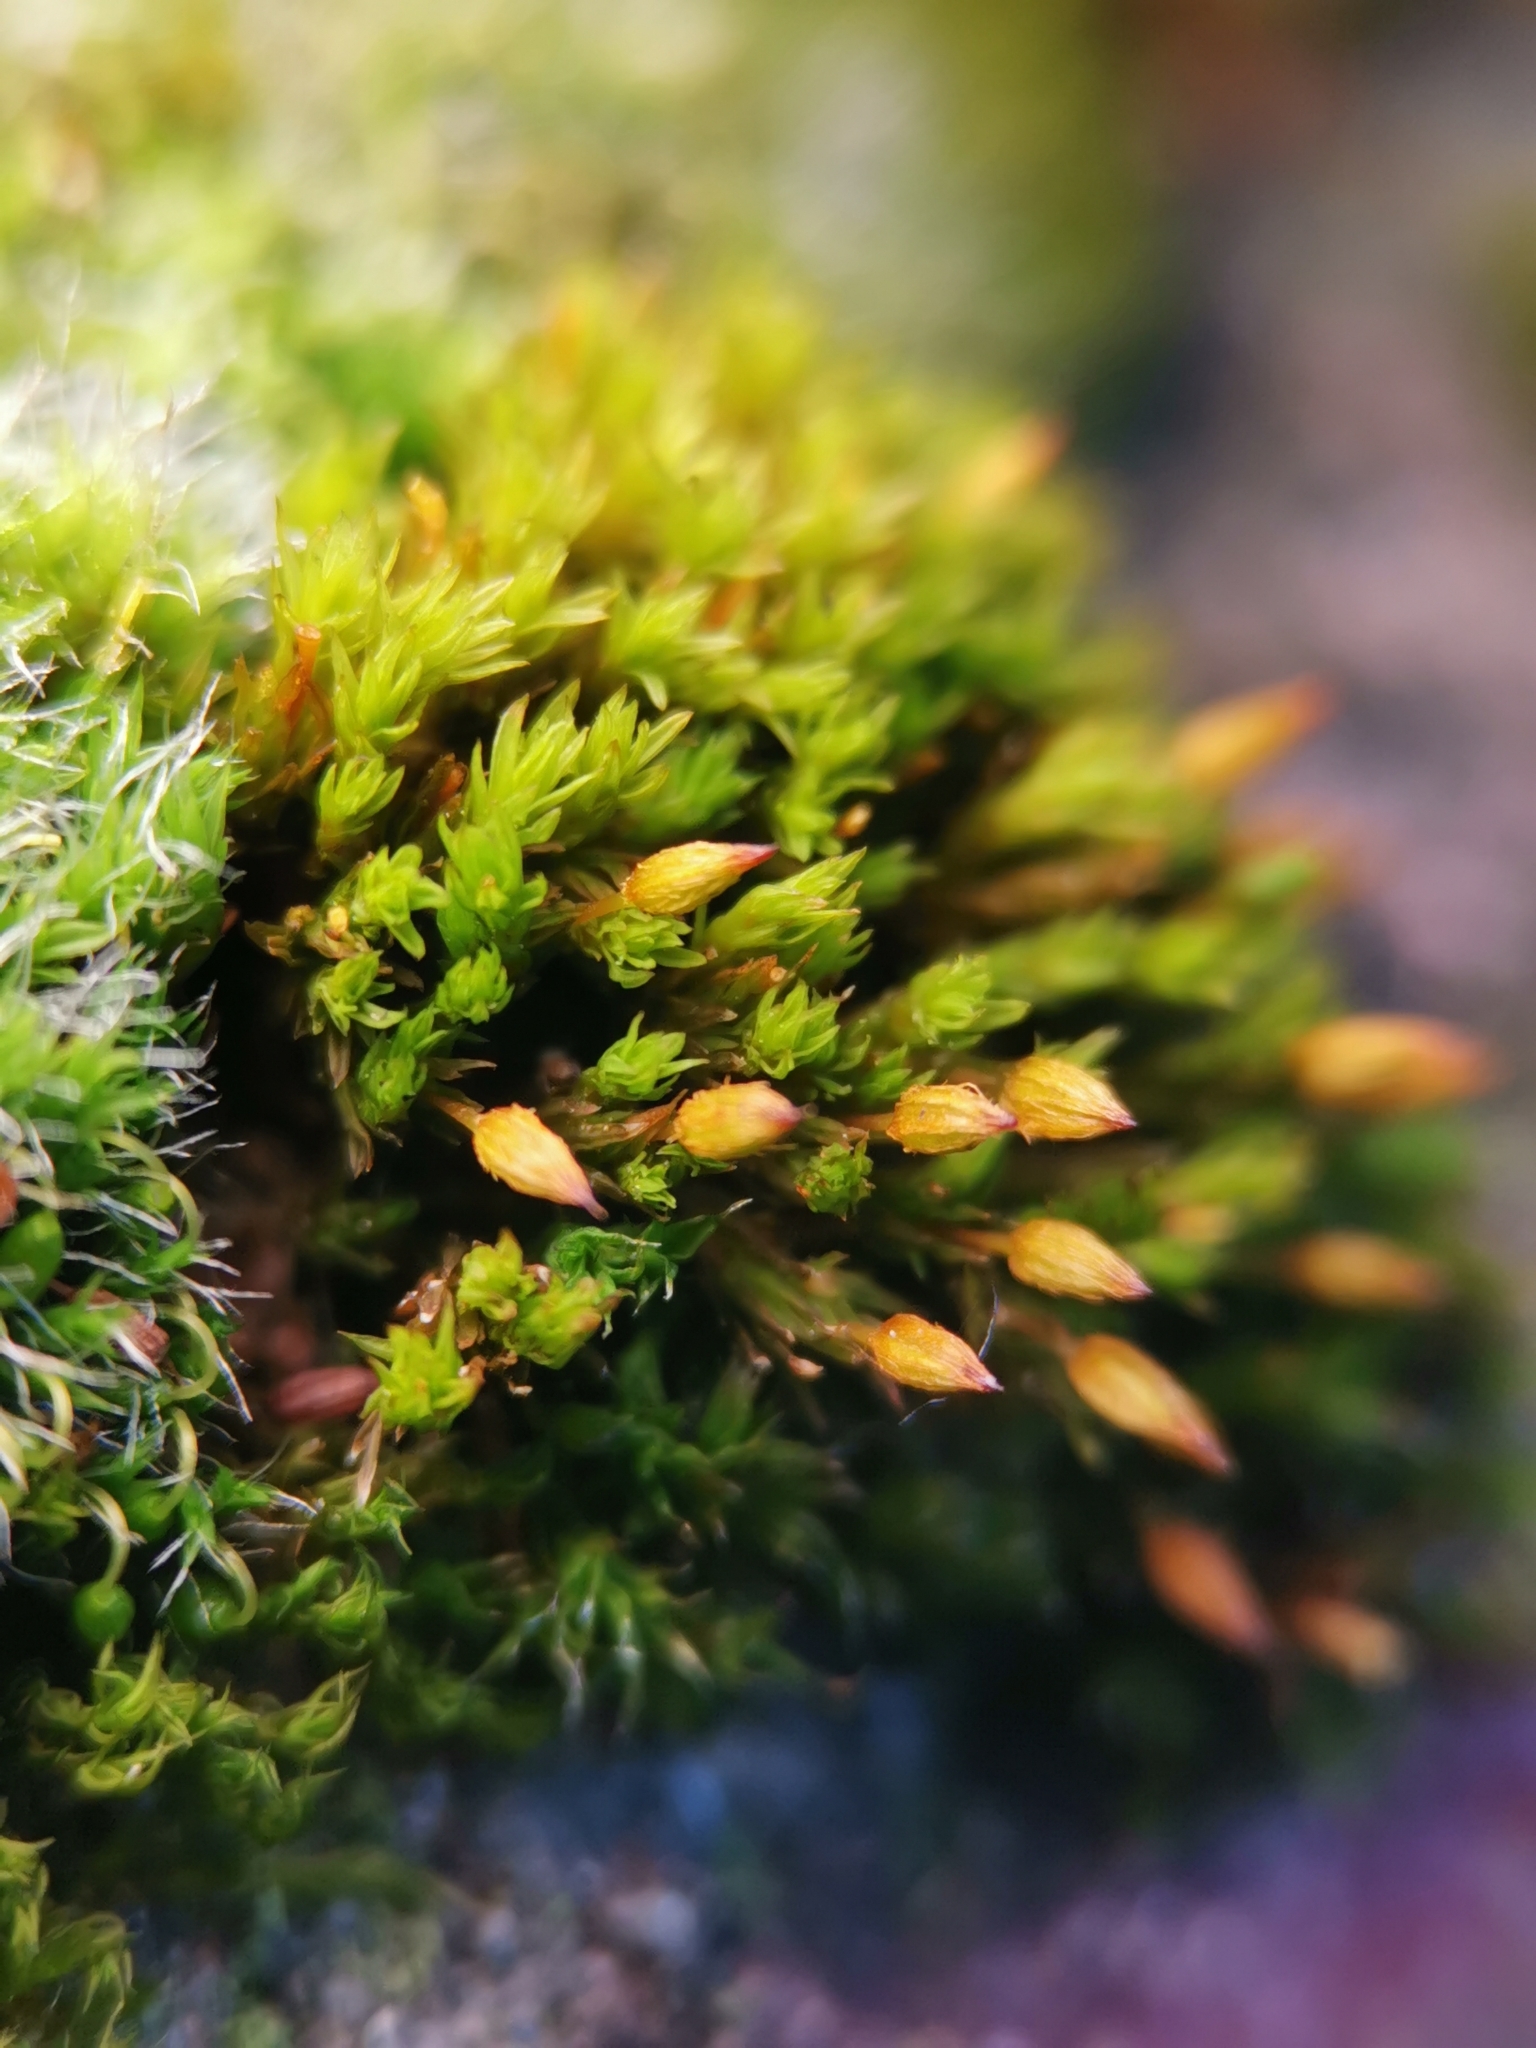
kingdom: Plantae
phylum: Bryophyta
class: Bryopsida
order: Orthotrichales
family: Orthotrichaceae
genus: Orthotrichum
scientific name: Orthotrichum anomalum
